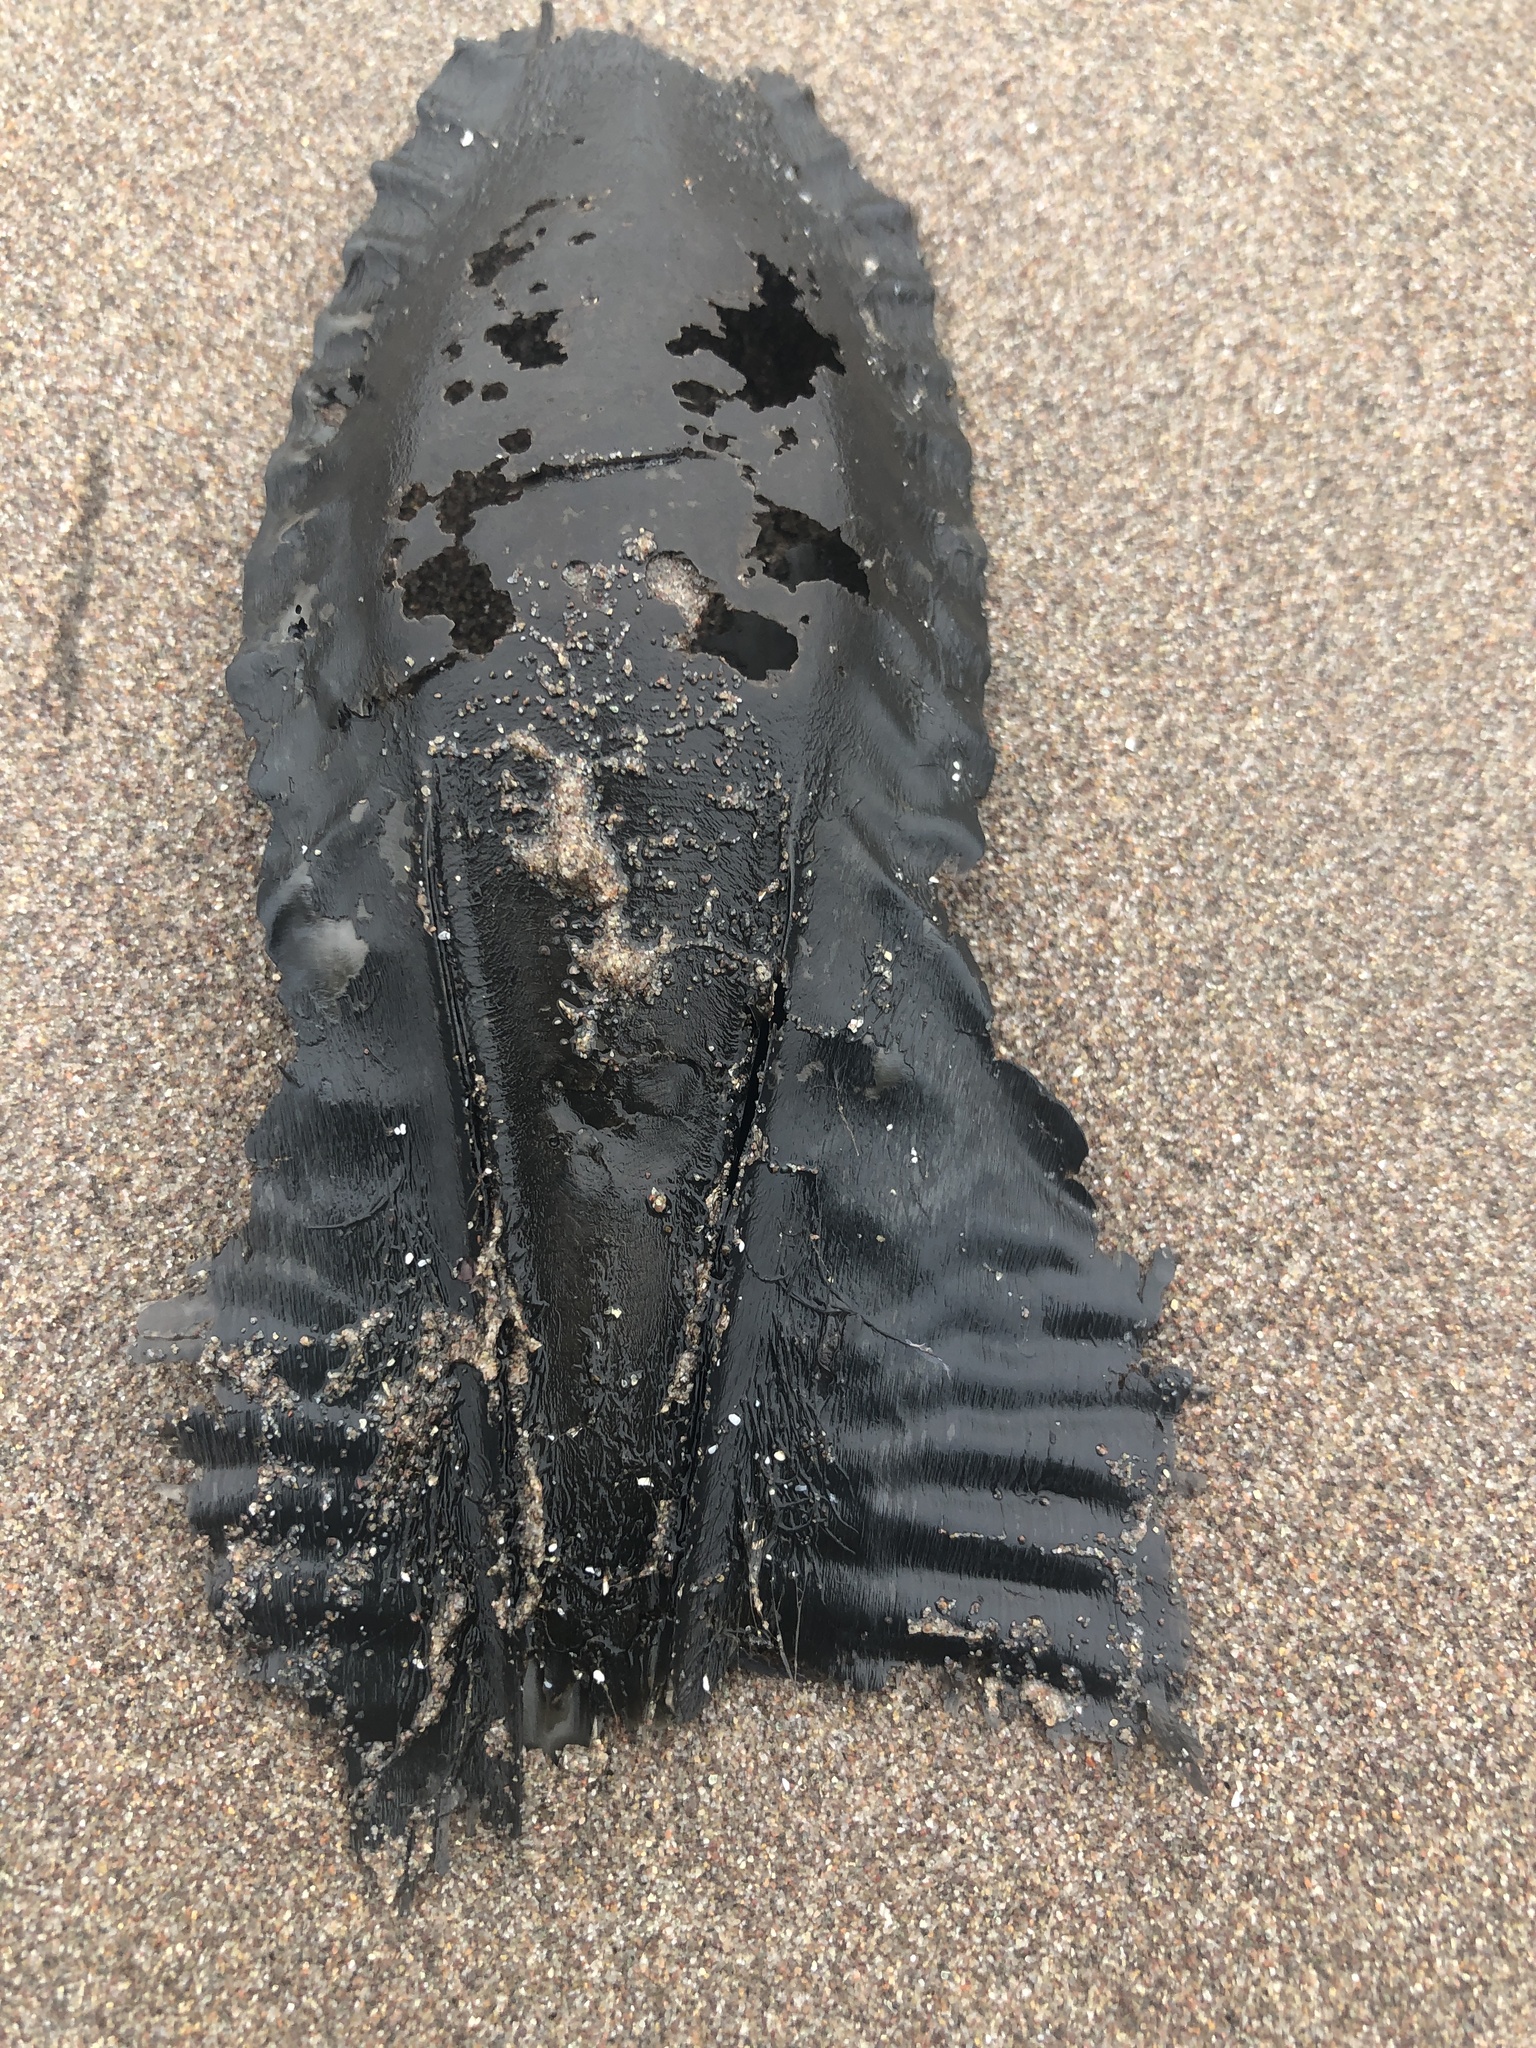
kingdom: Animalia
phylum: Chordata
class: Holocephali
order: Chimaeriformes
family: Callorhinchidae
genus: Callorhinchus
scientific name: Callorhinchus callorynchus
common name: Elephant fish
